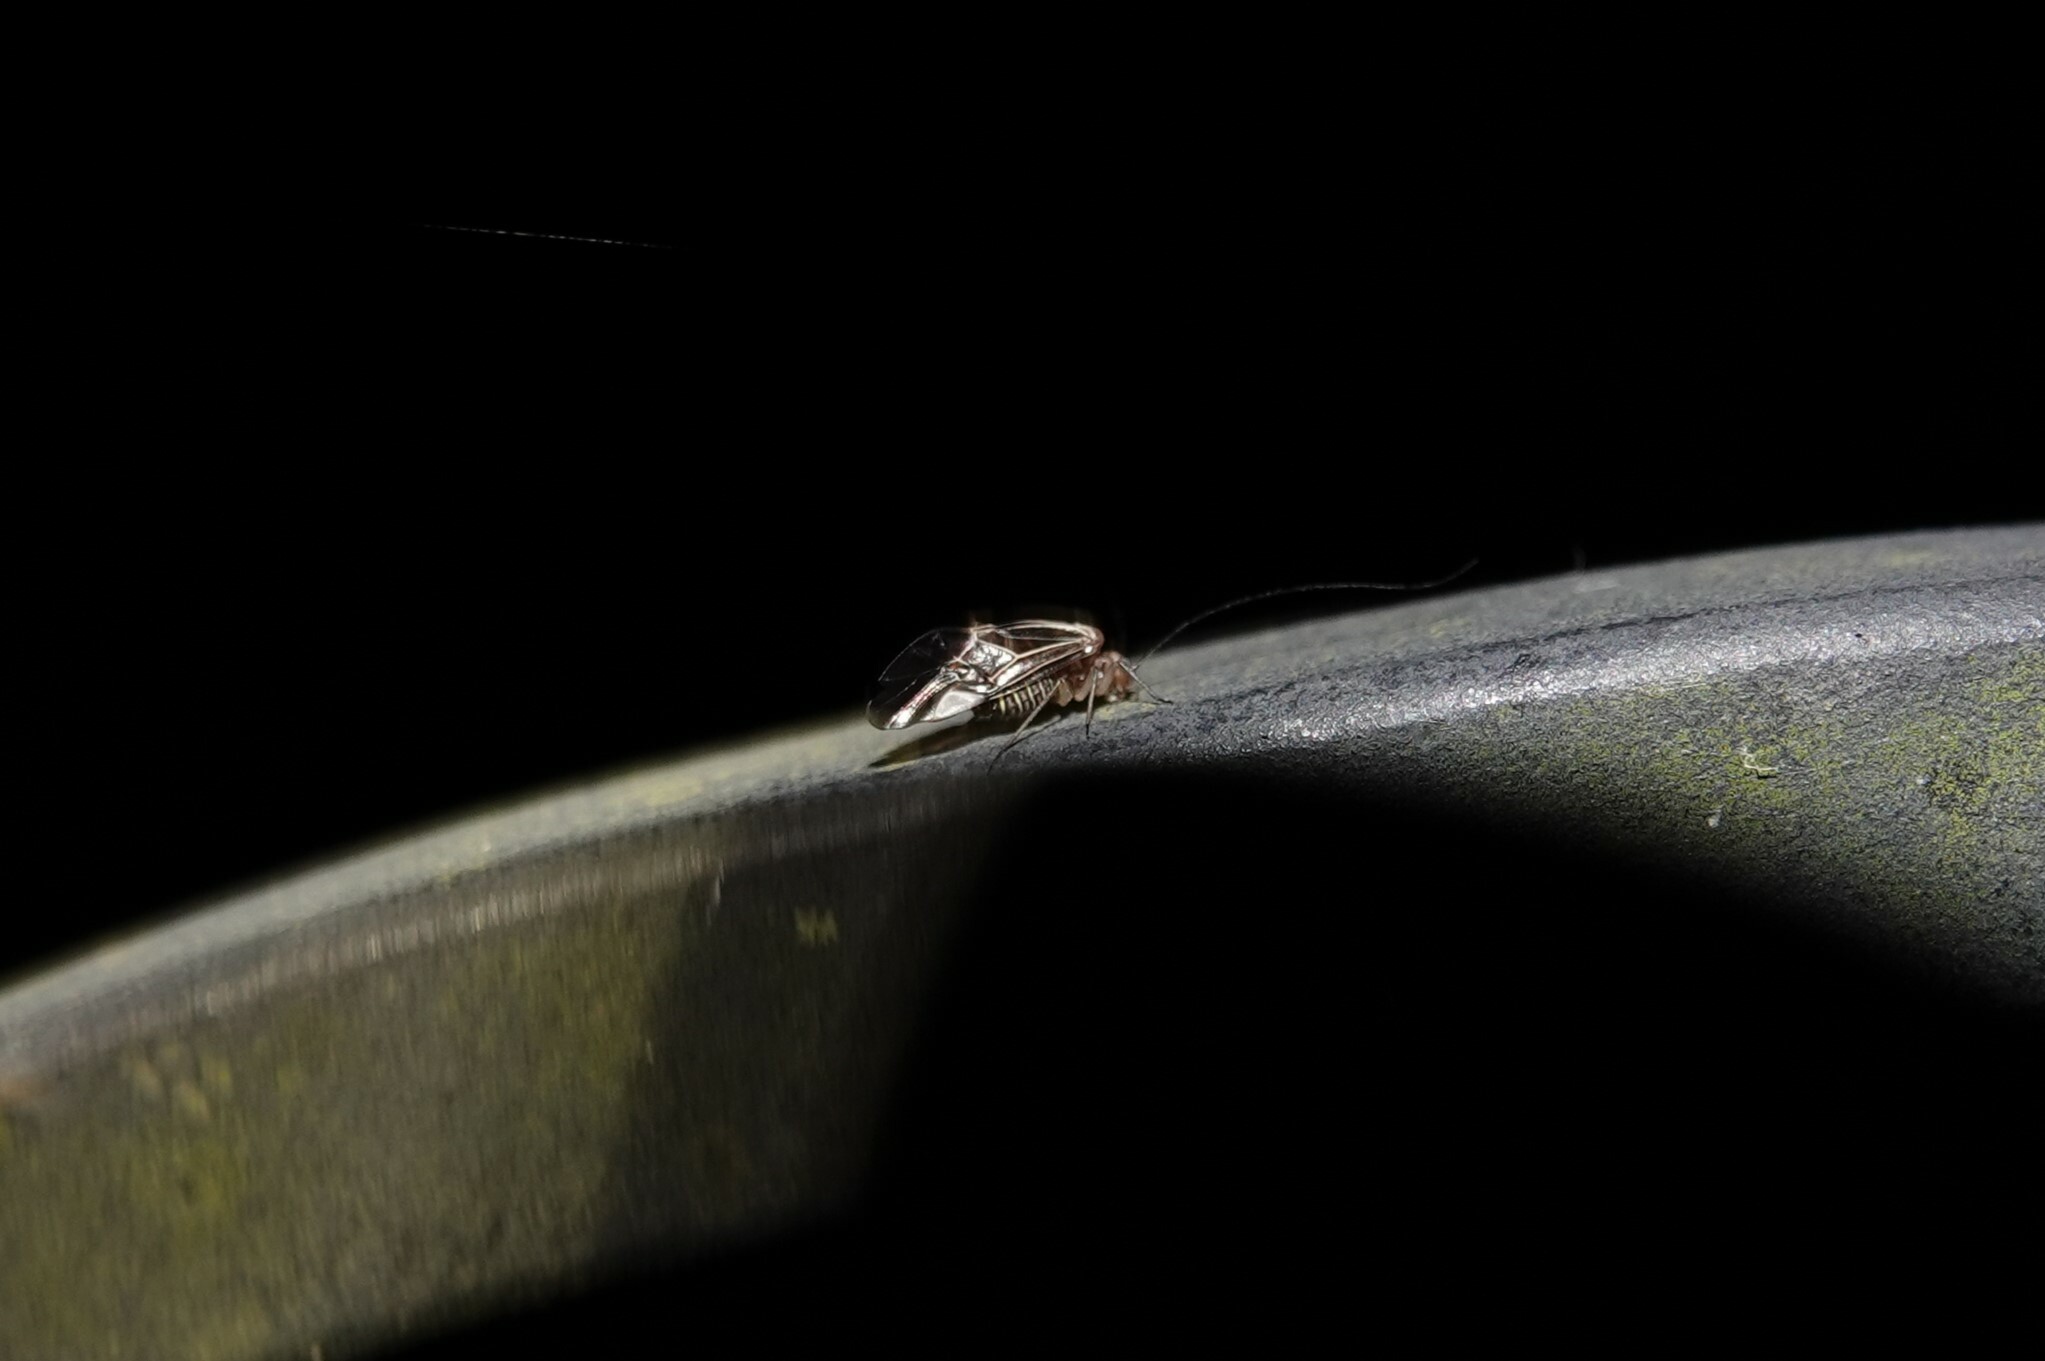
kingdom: Animalia
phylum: Arthropoda
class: Insecta
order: Psocodea
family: Psocidae
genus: Cerastipsocus
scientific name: Cerastipsocus venosus
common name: Tree cattle
